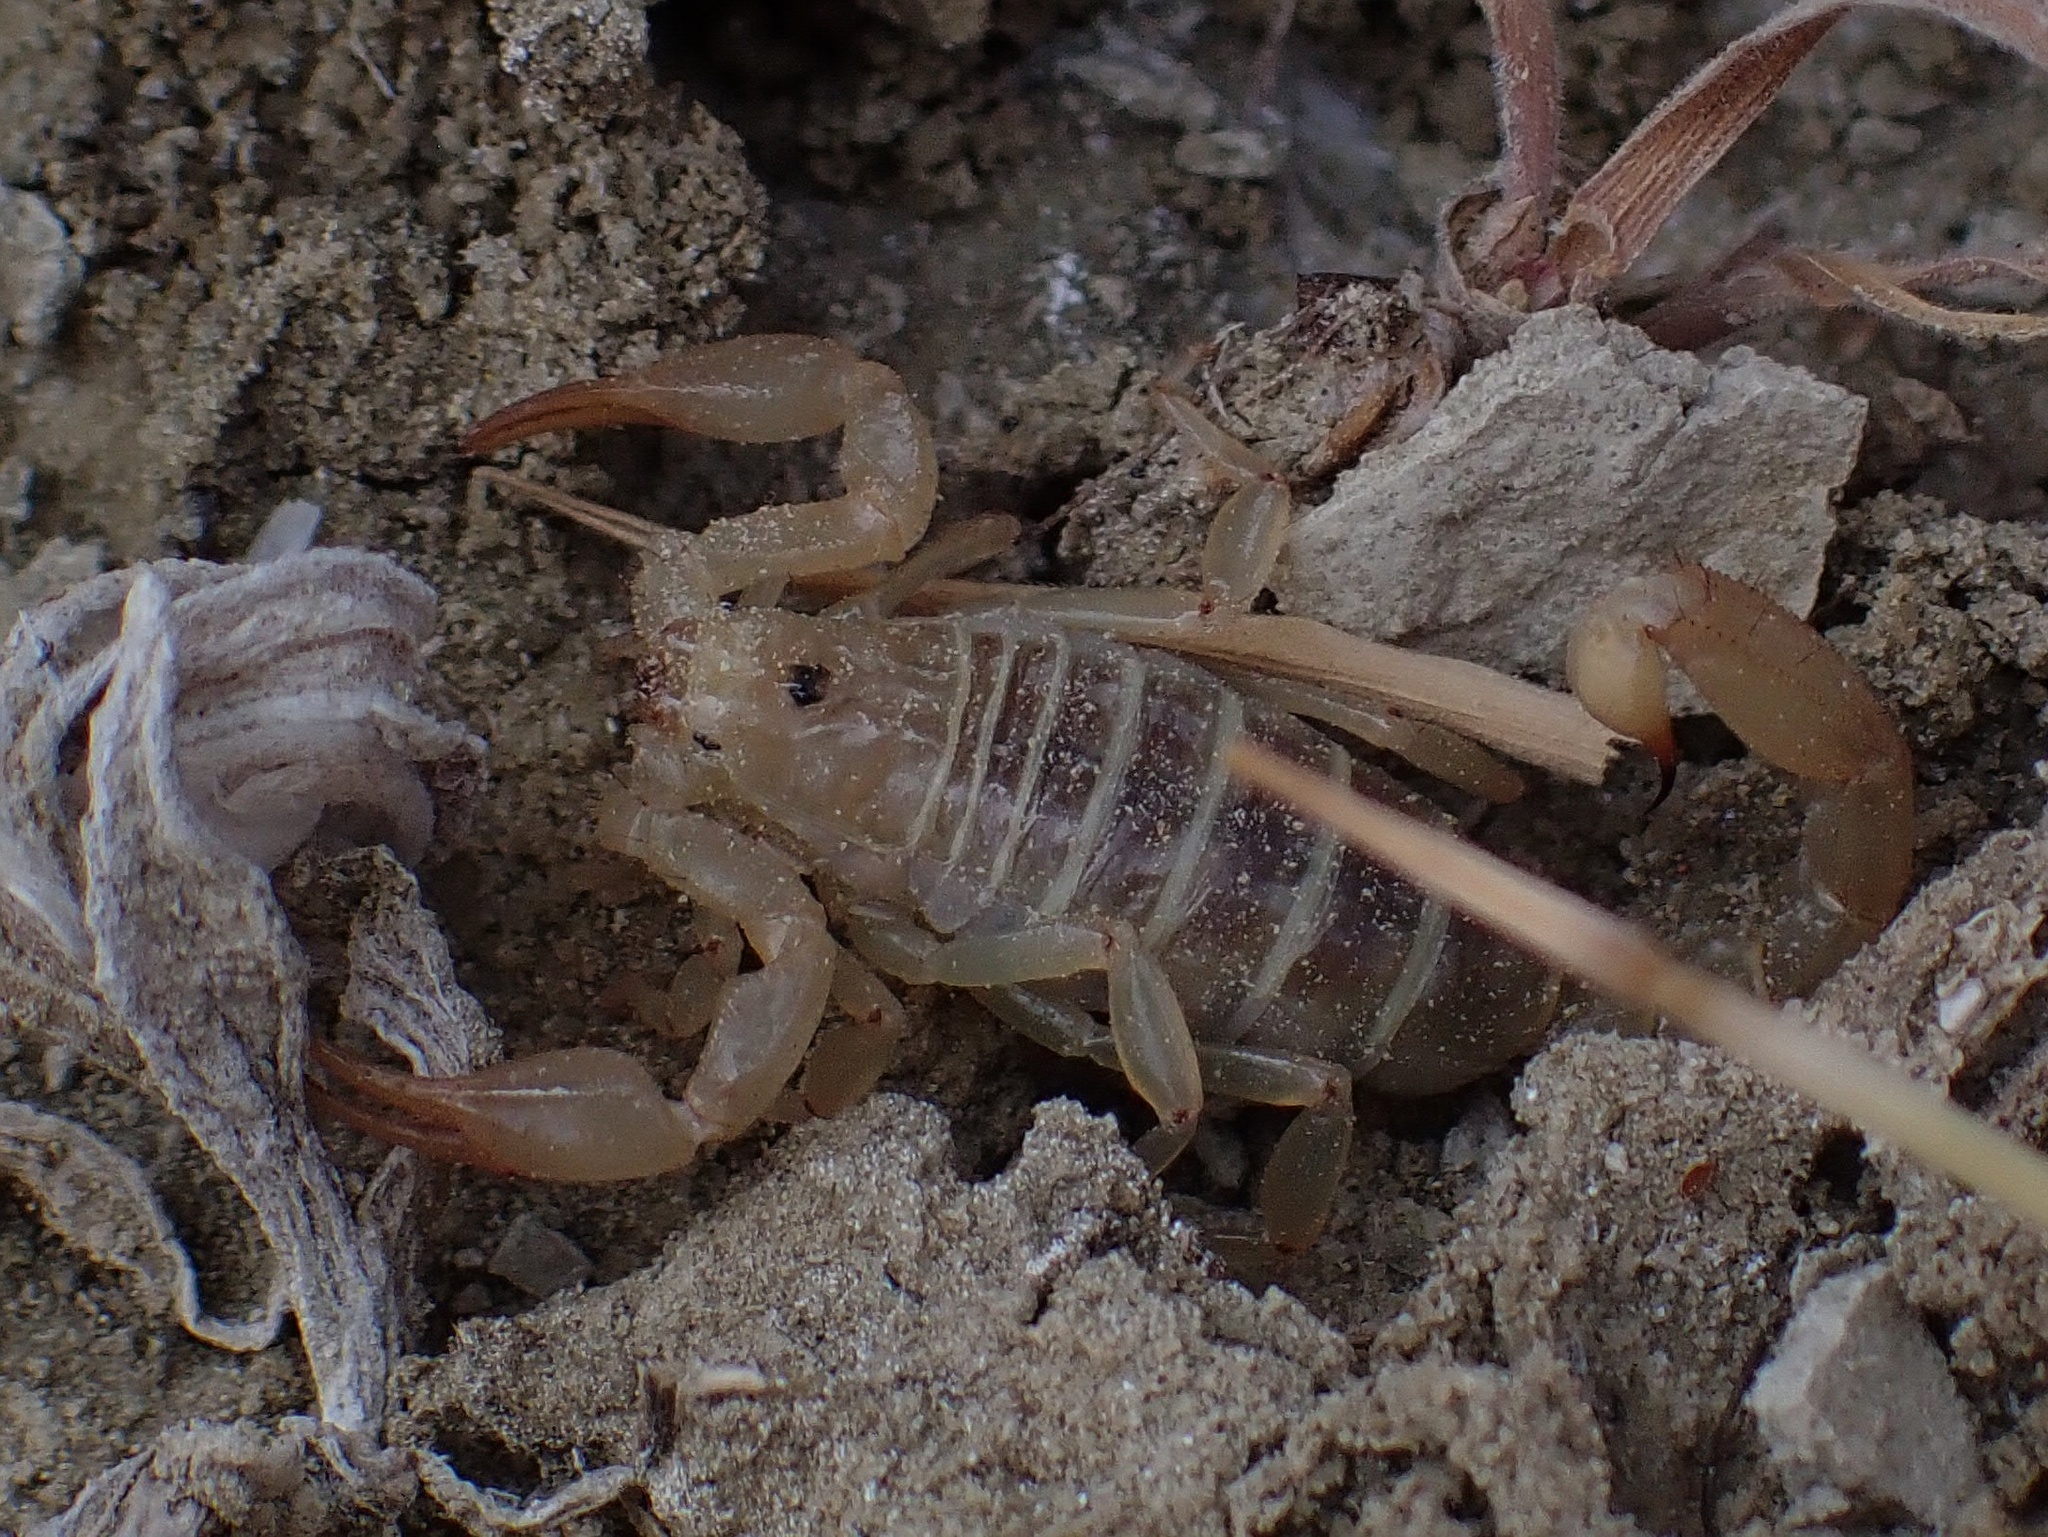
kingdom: Animalia
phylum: Arthropoda
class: Arachnida
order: Scorpiones
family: Vaejovidae
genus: Paruroctonus
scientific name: Paruroctonus soda
